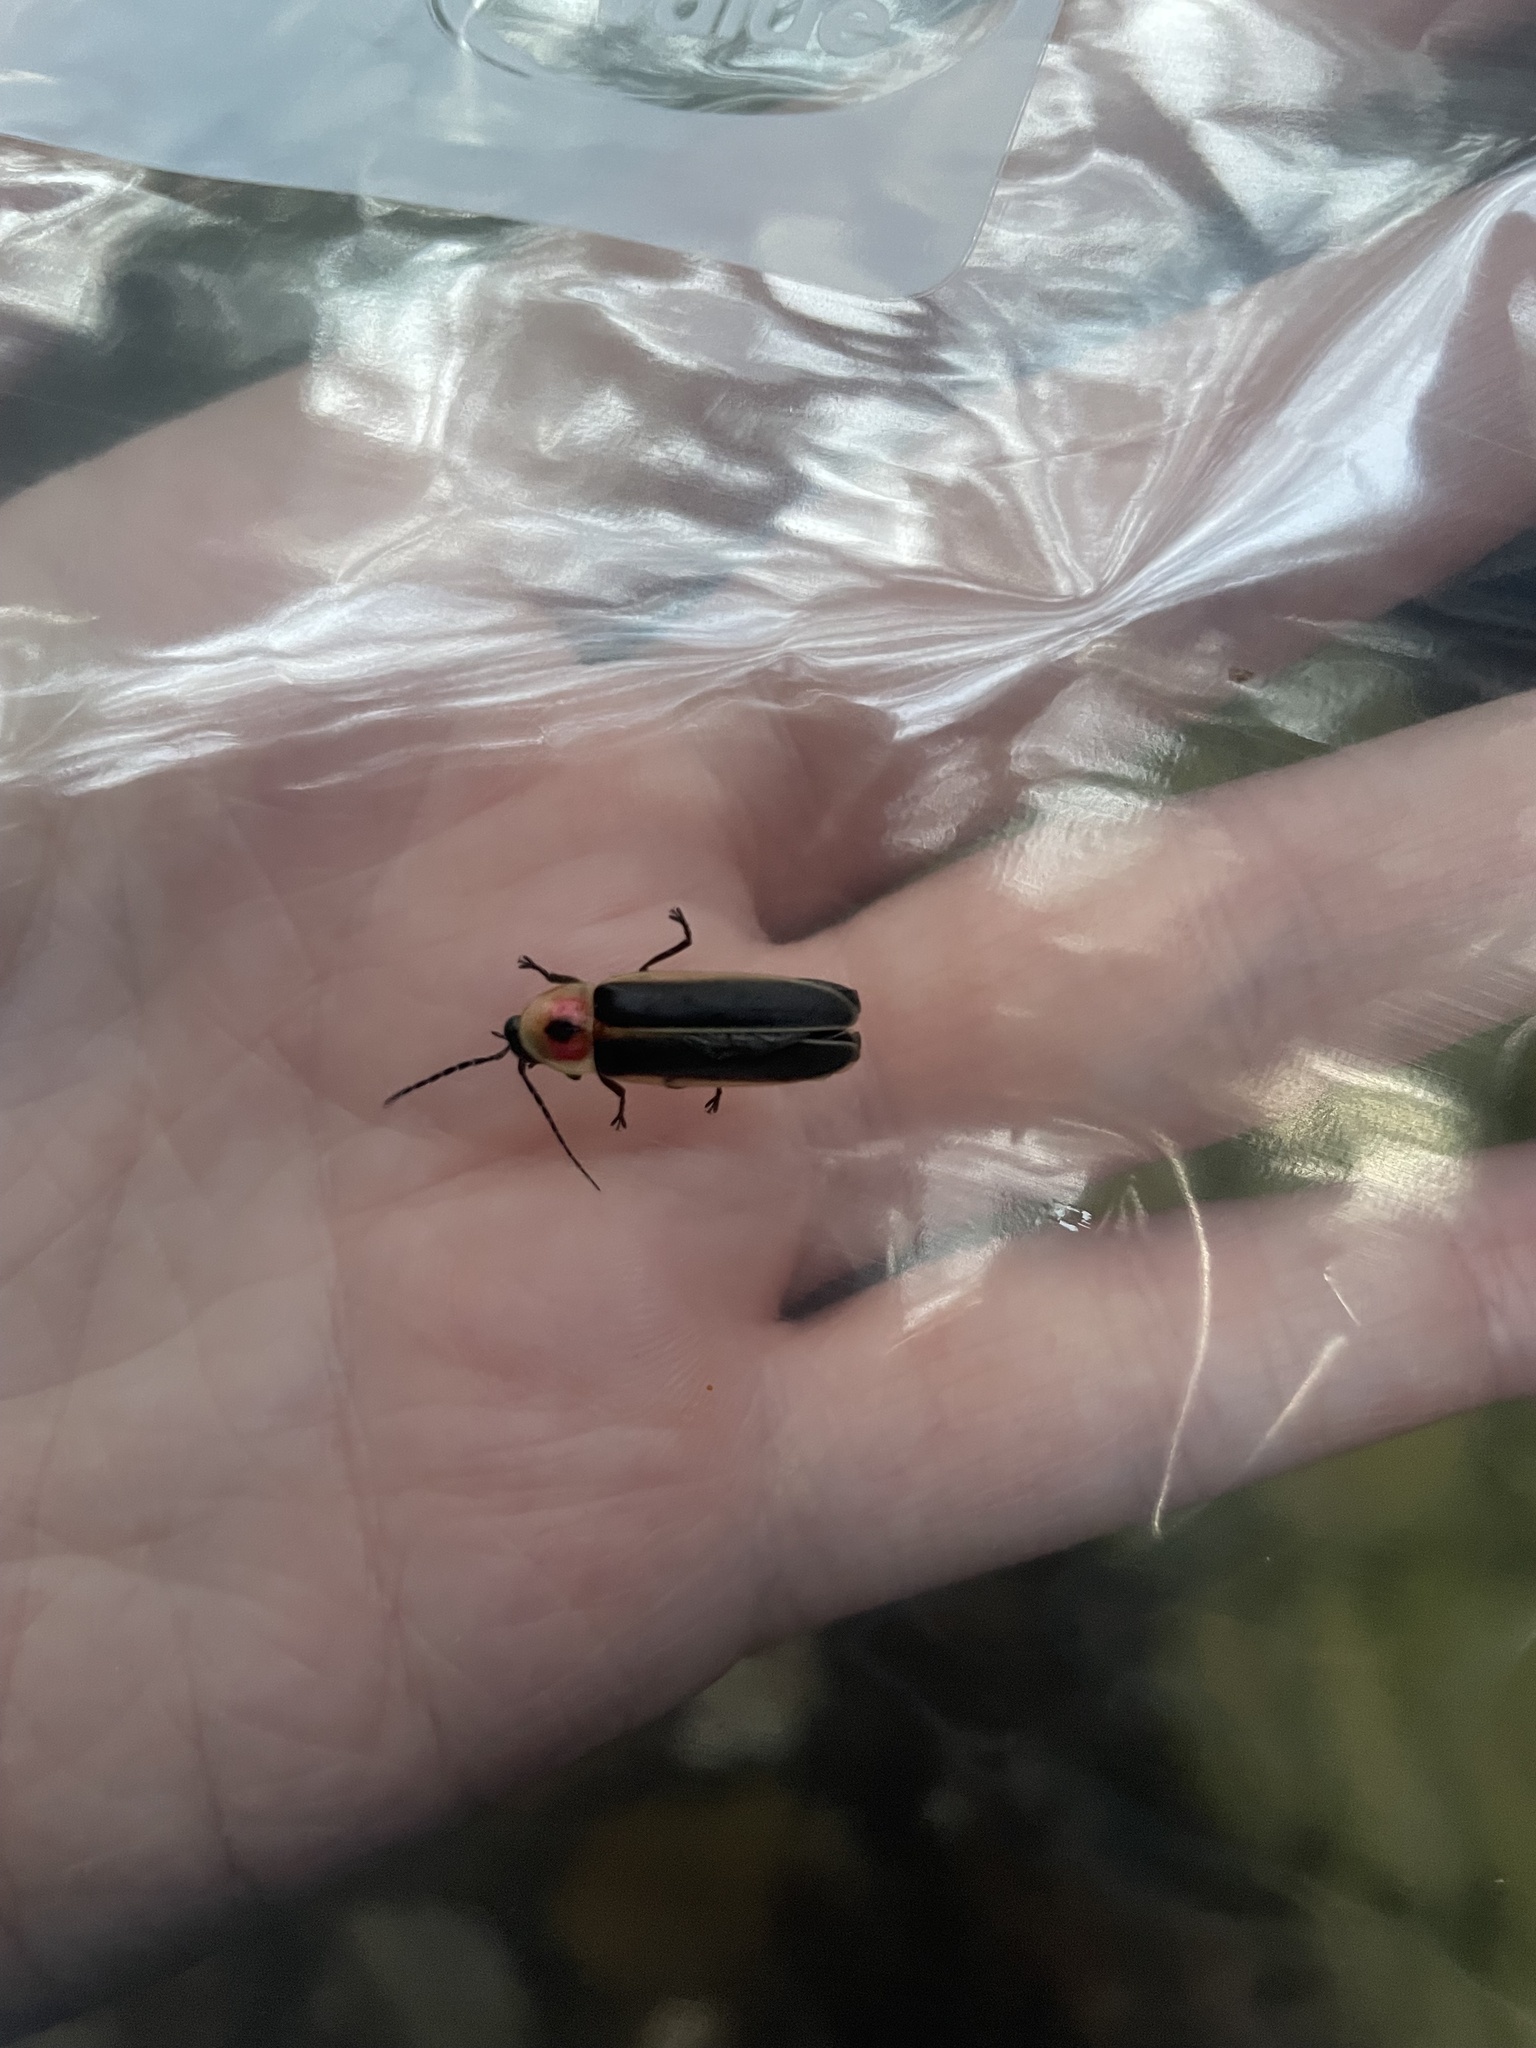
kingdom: Animalia
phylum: Arthropoda
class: Insecta
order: Coleoptera
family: Lampyridae
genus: Photinus
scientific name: Photinus pyralis
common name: Big dipper firefly
